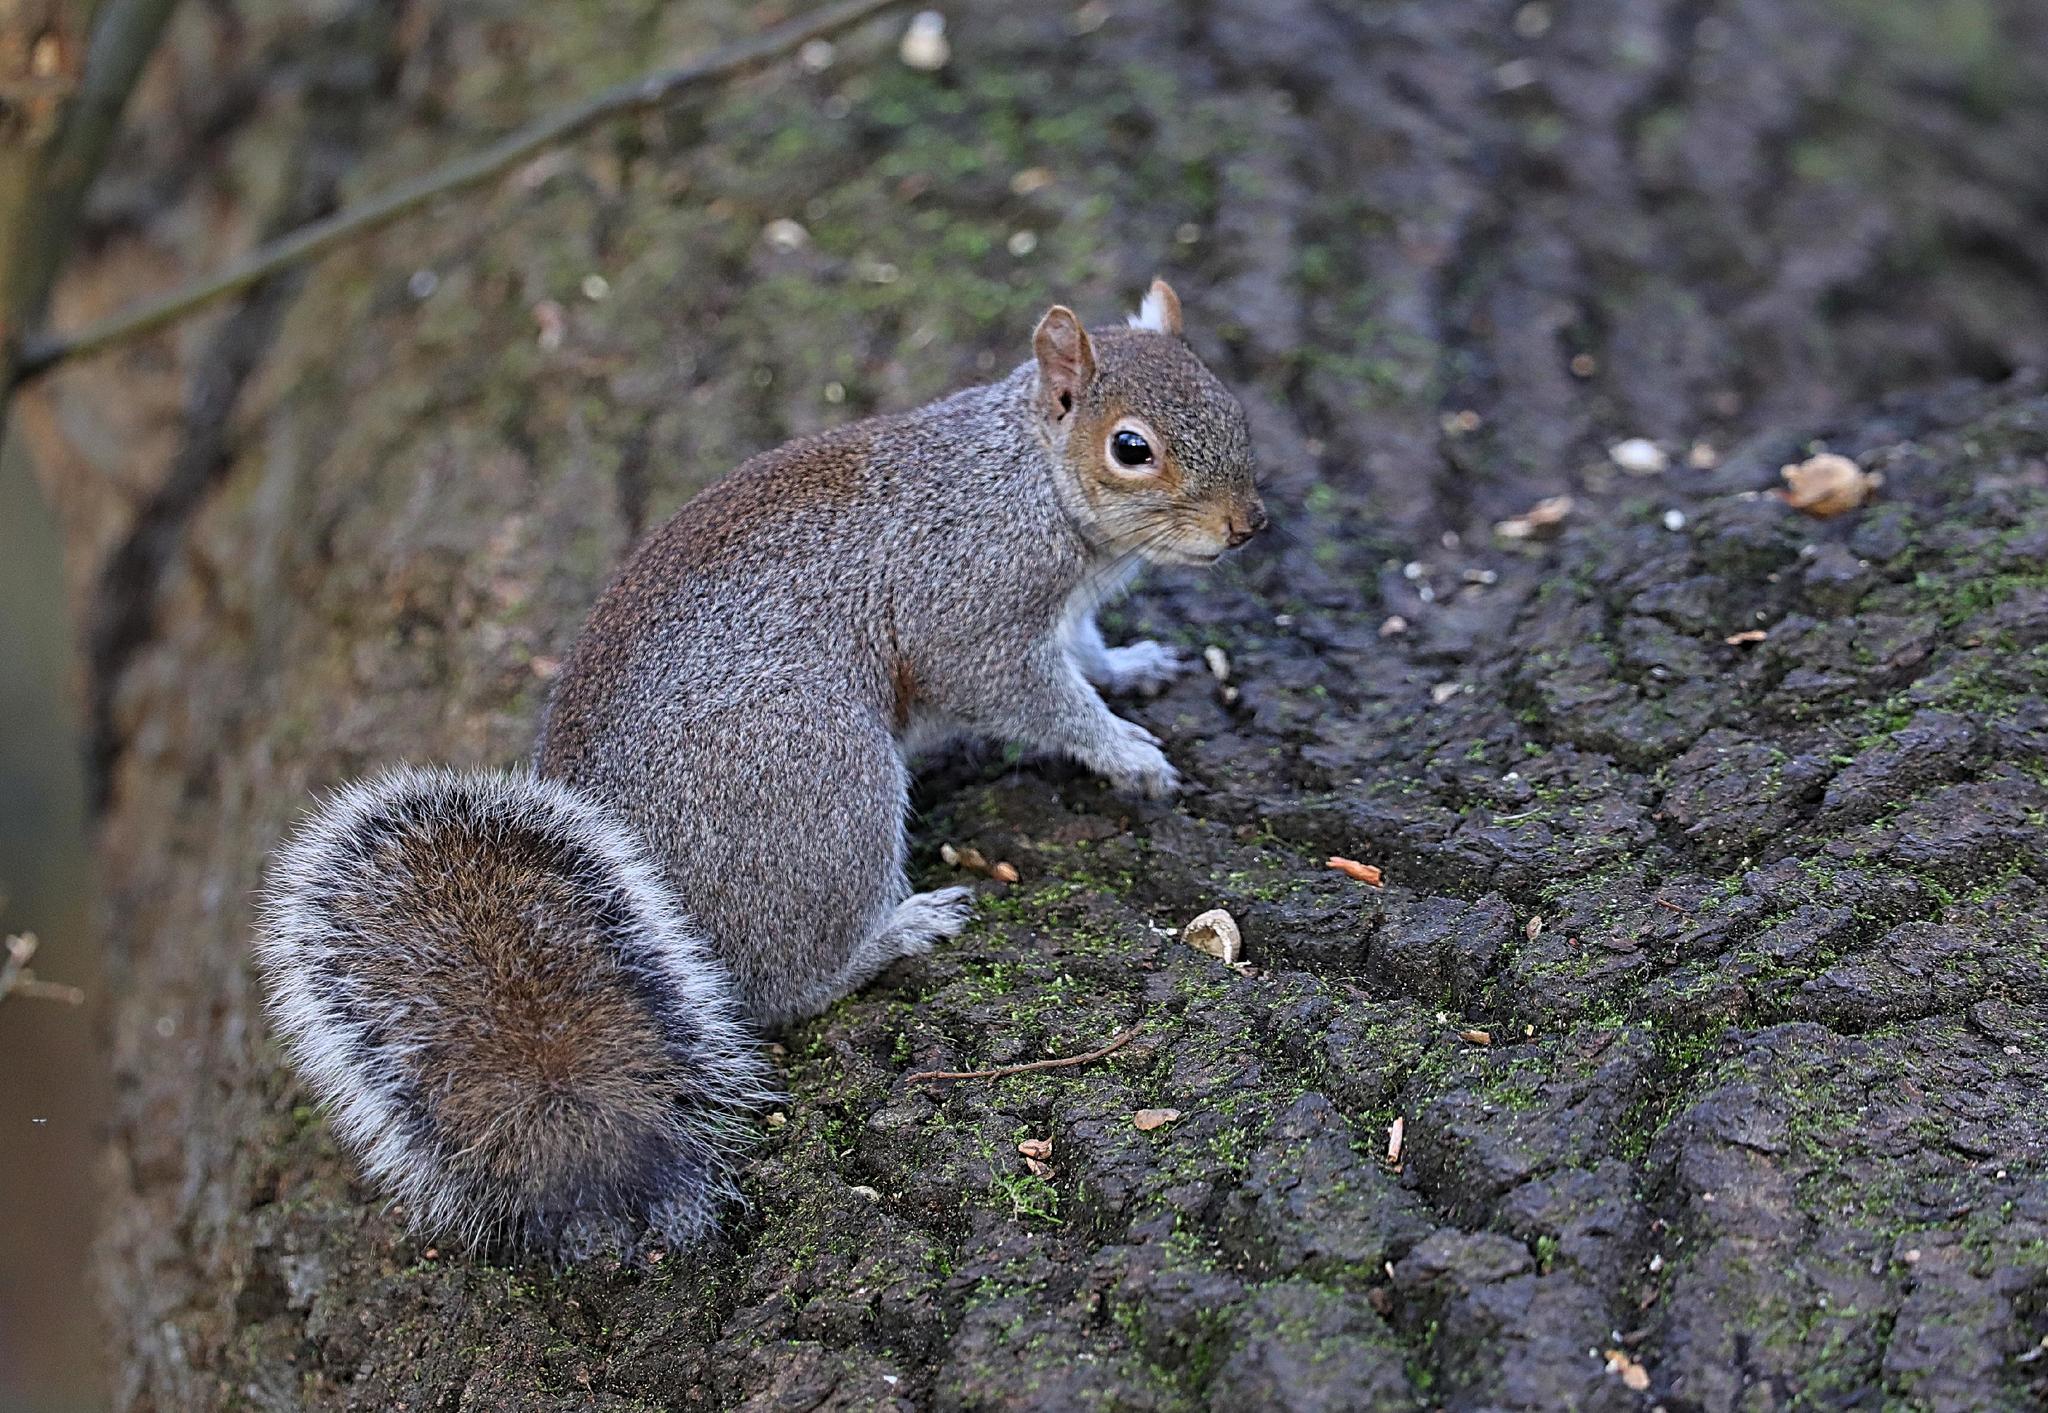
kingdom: Animalia
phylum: Chordata
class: Mammalia
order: Rodentia
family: Sciuridae
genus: Sciurus
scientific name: Sciurus carolinensis
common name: Eastern gray squirrel
